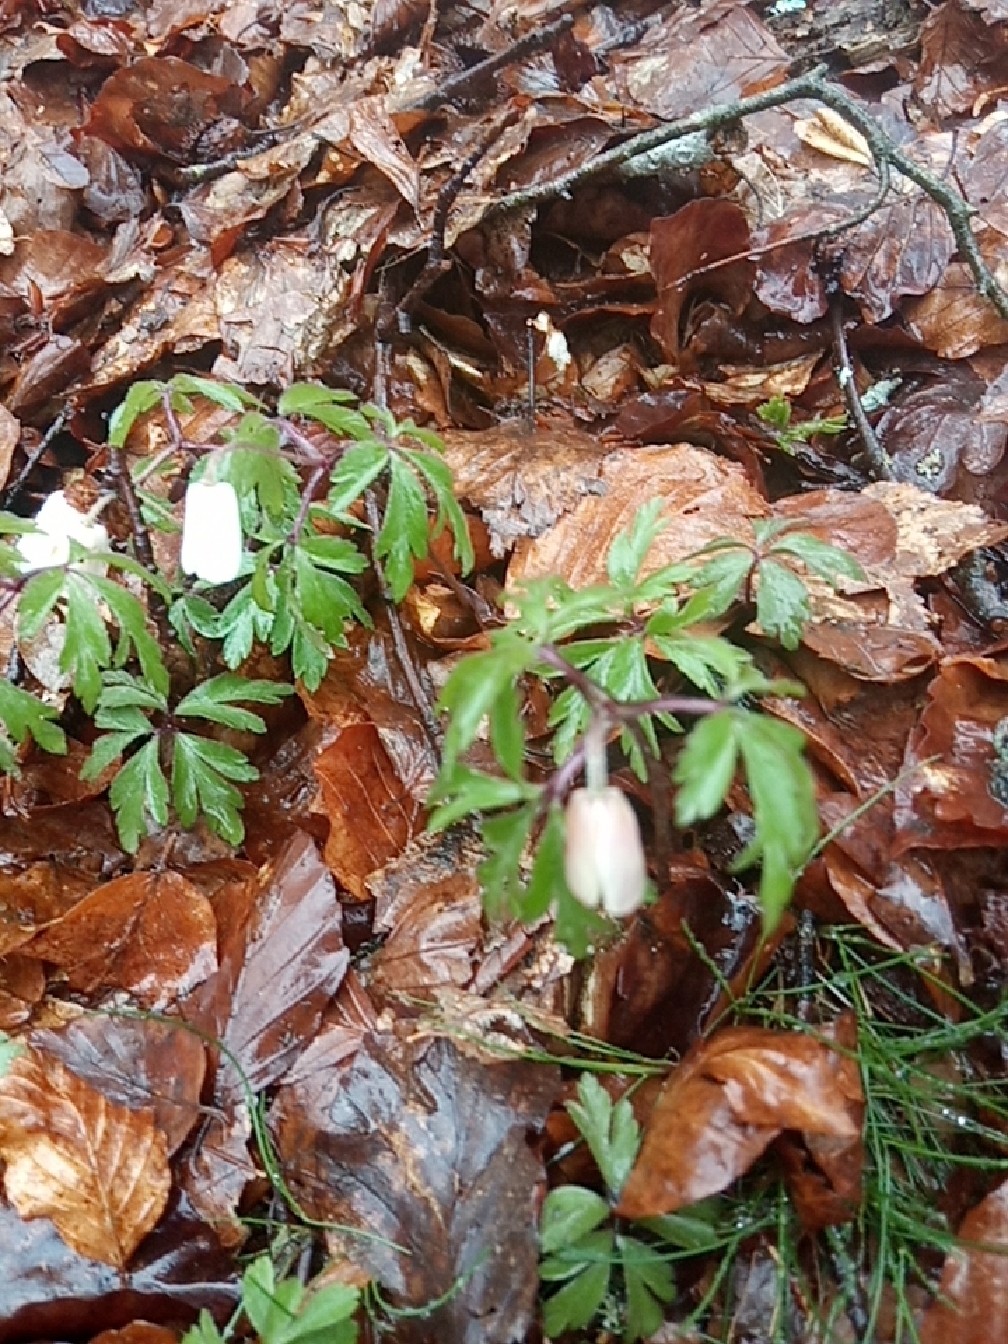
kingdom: Plantae
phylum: Tracheophyta
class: Magnoliopsida
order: Ranunculales
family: Ranunculaceae
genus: Anemone
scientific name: Anemone nemorosa
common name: Wood anemone
